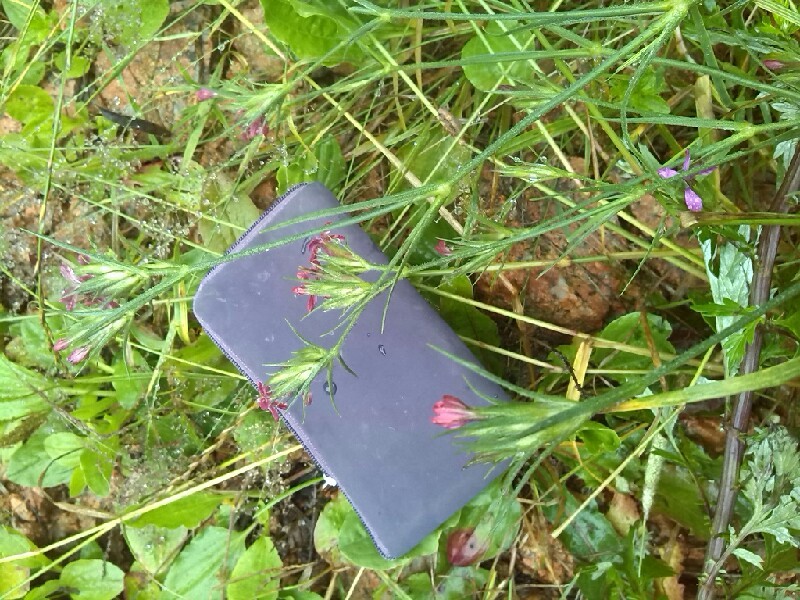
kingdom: Plantae
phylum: Tracheophyta
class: Magnoliopsida
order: Caryophyllales
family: Caryophyllaceae
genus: Dianthus
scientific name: Dianthus armeria
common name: Deptford pink
